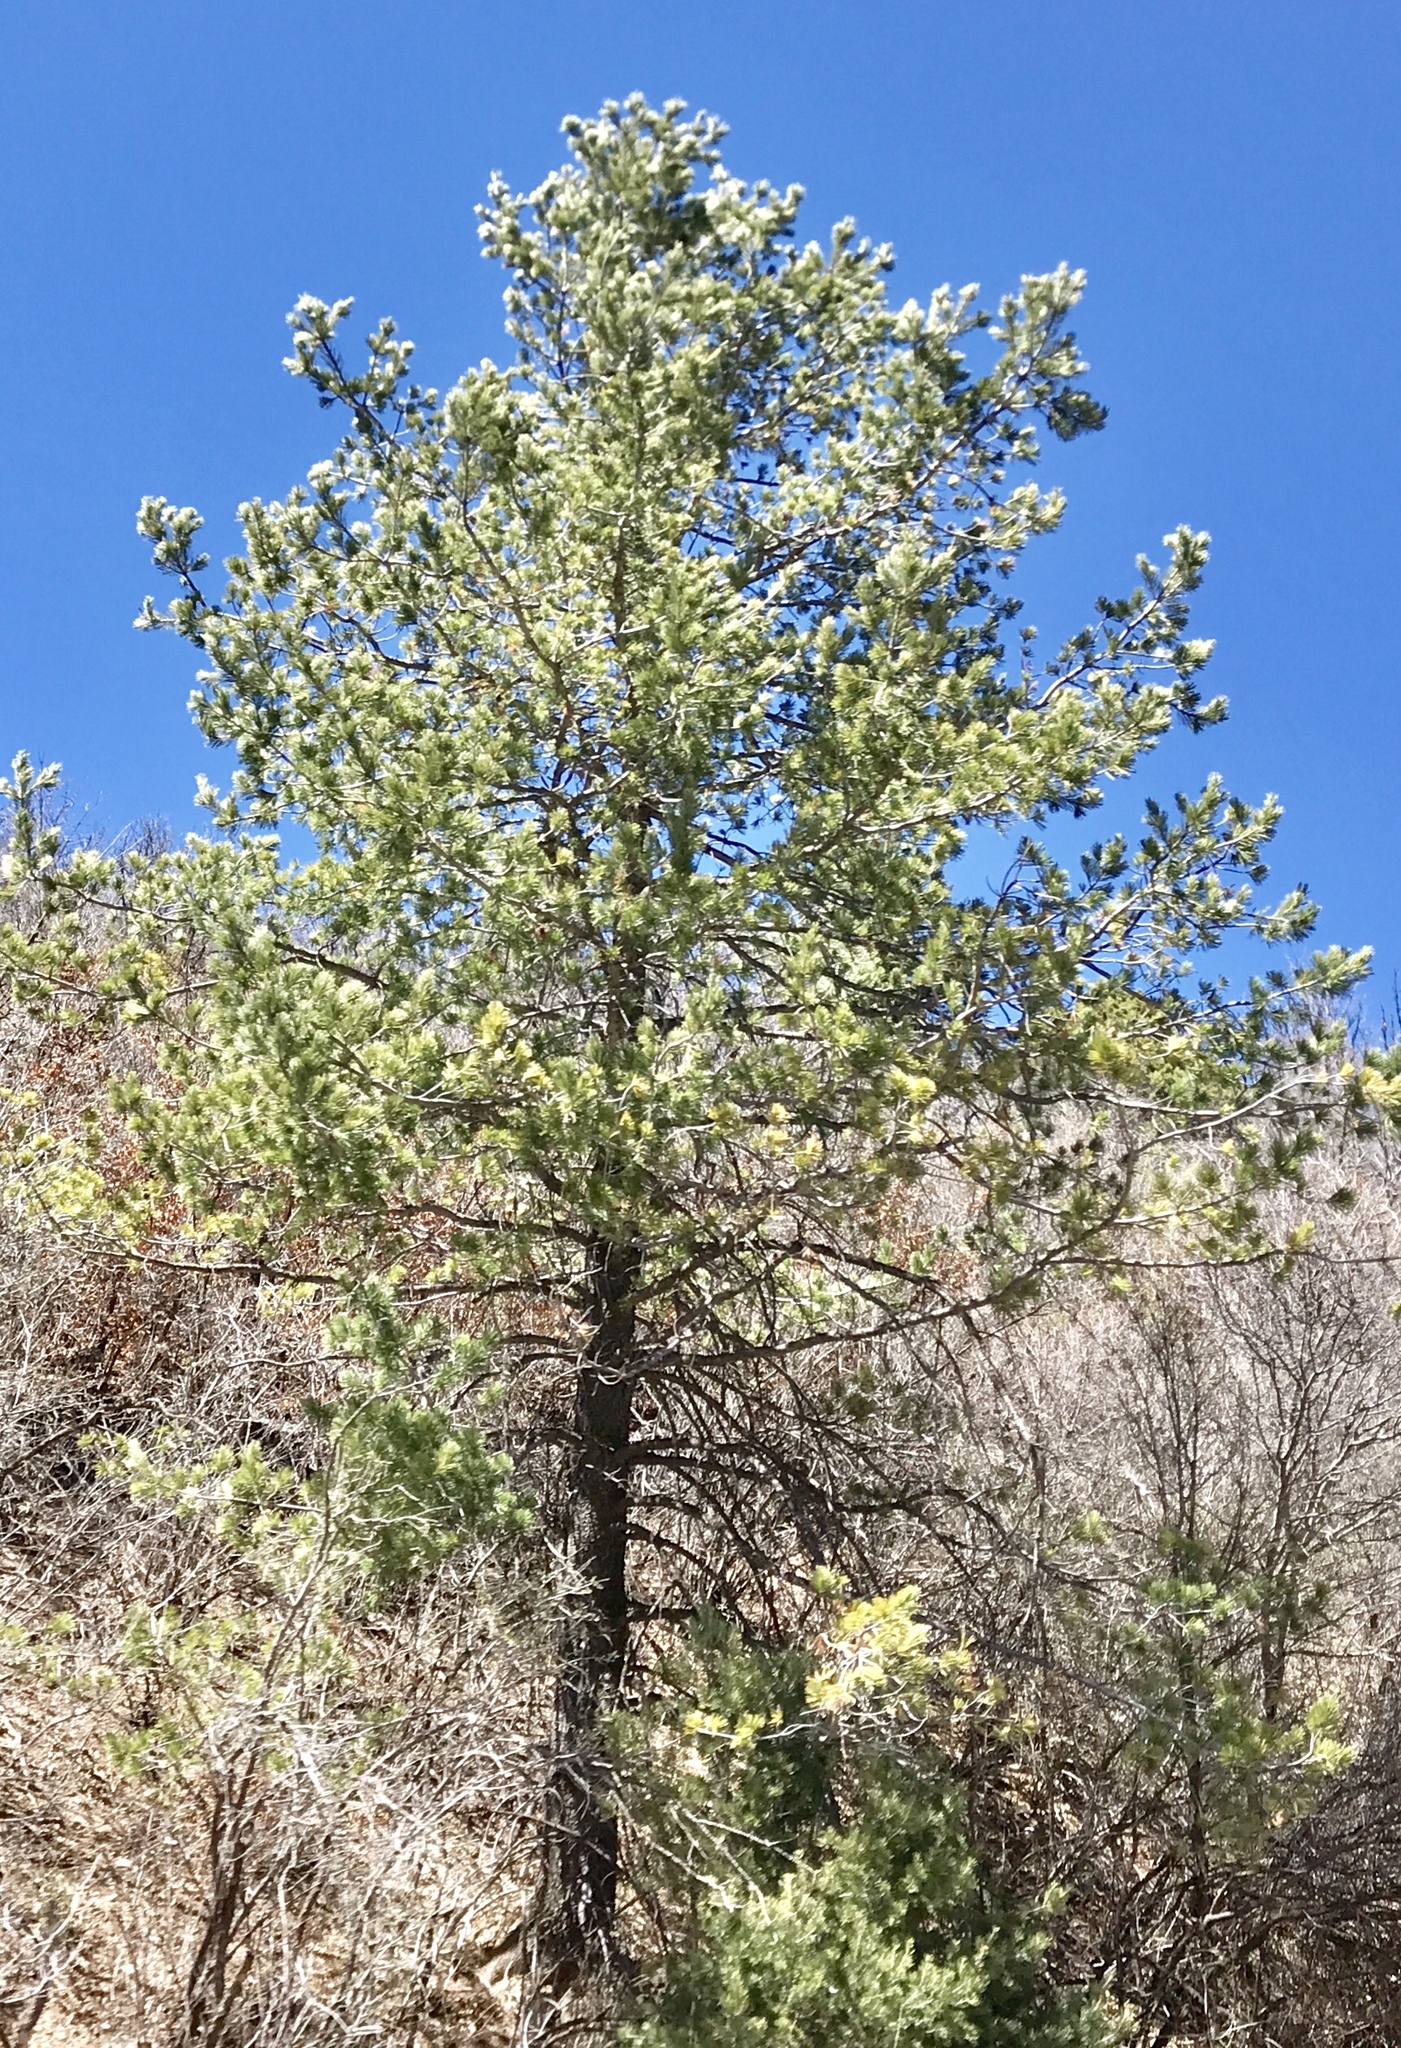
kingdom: Plantae
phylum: Tracheophyta
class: Pinopsida
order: Pinales
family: Pinaceae
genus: Pinus
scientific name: Pinus strobiformis
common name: Southwestern white pine
